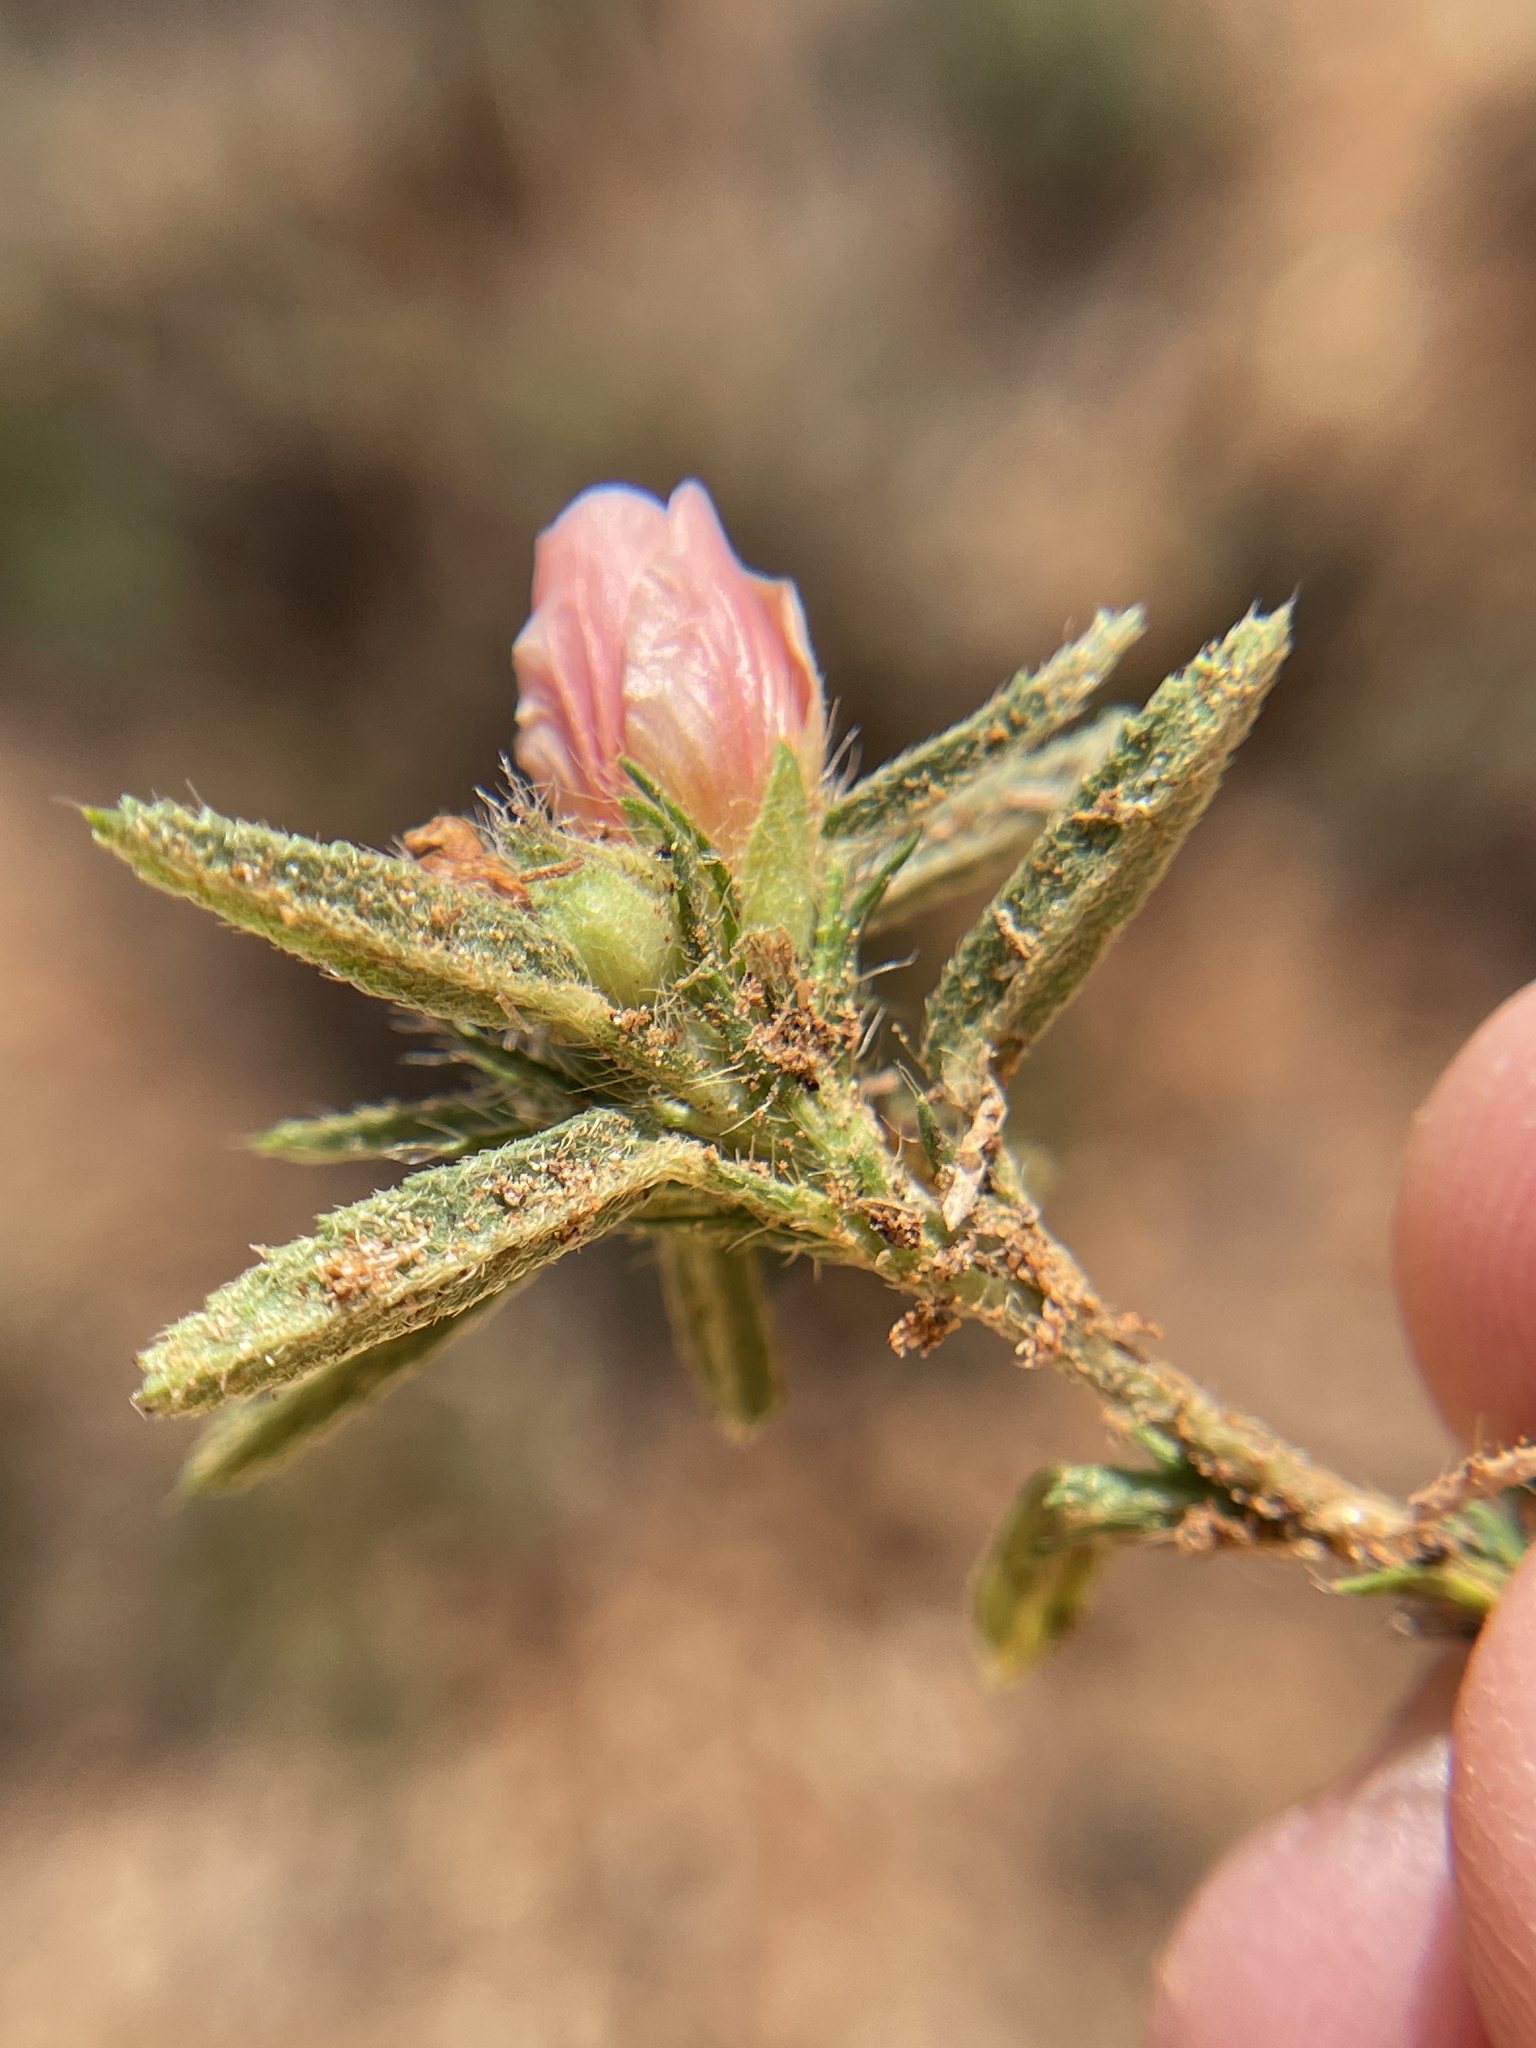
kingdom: Plantae
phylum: Tracheophyta
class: Magnoliopsida
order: Malvales
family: Malvaceae
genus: Sida
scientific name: Sida ciliaris
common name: Bracted fanpetals
